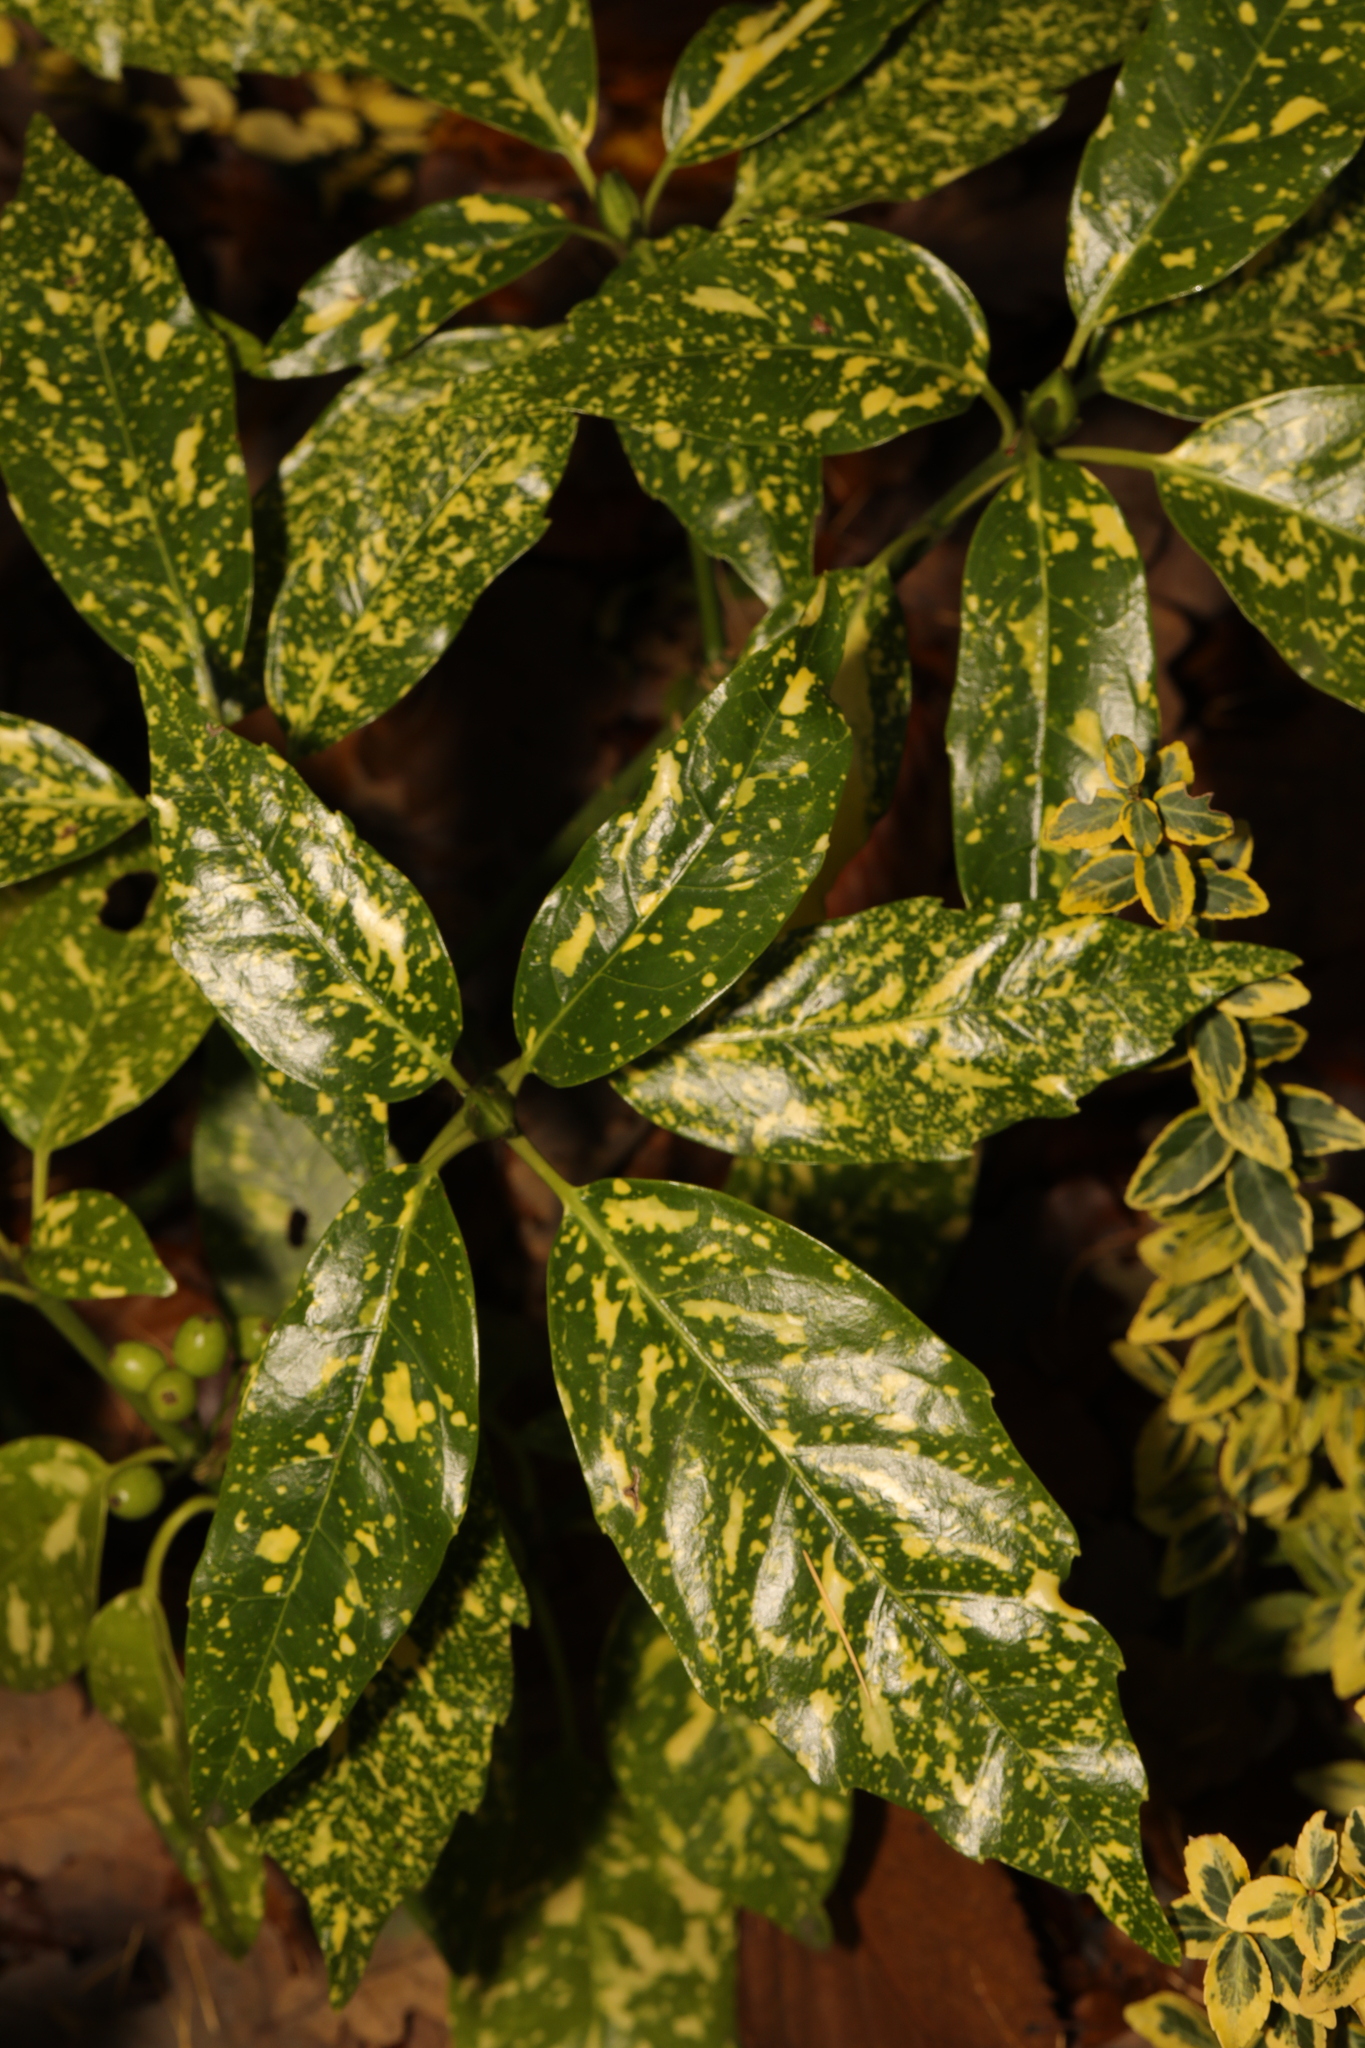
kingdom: Plantae
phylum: Tracheophyta
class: Magnoliopsida
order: Garryales
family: Garryaceae
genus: Aucuba
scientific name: Aucuba japonica
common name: Spotted-laurel
